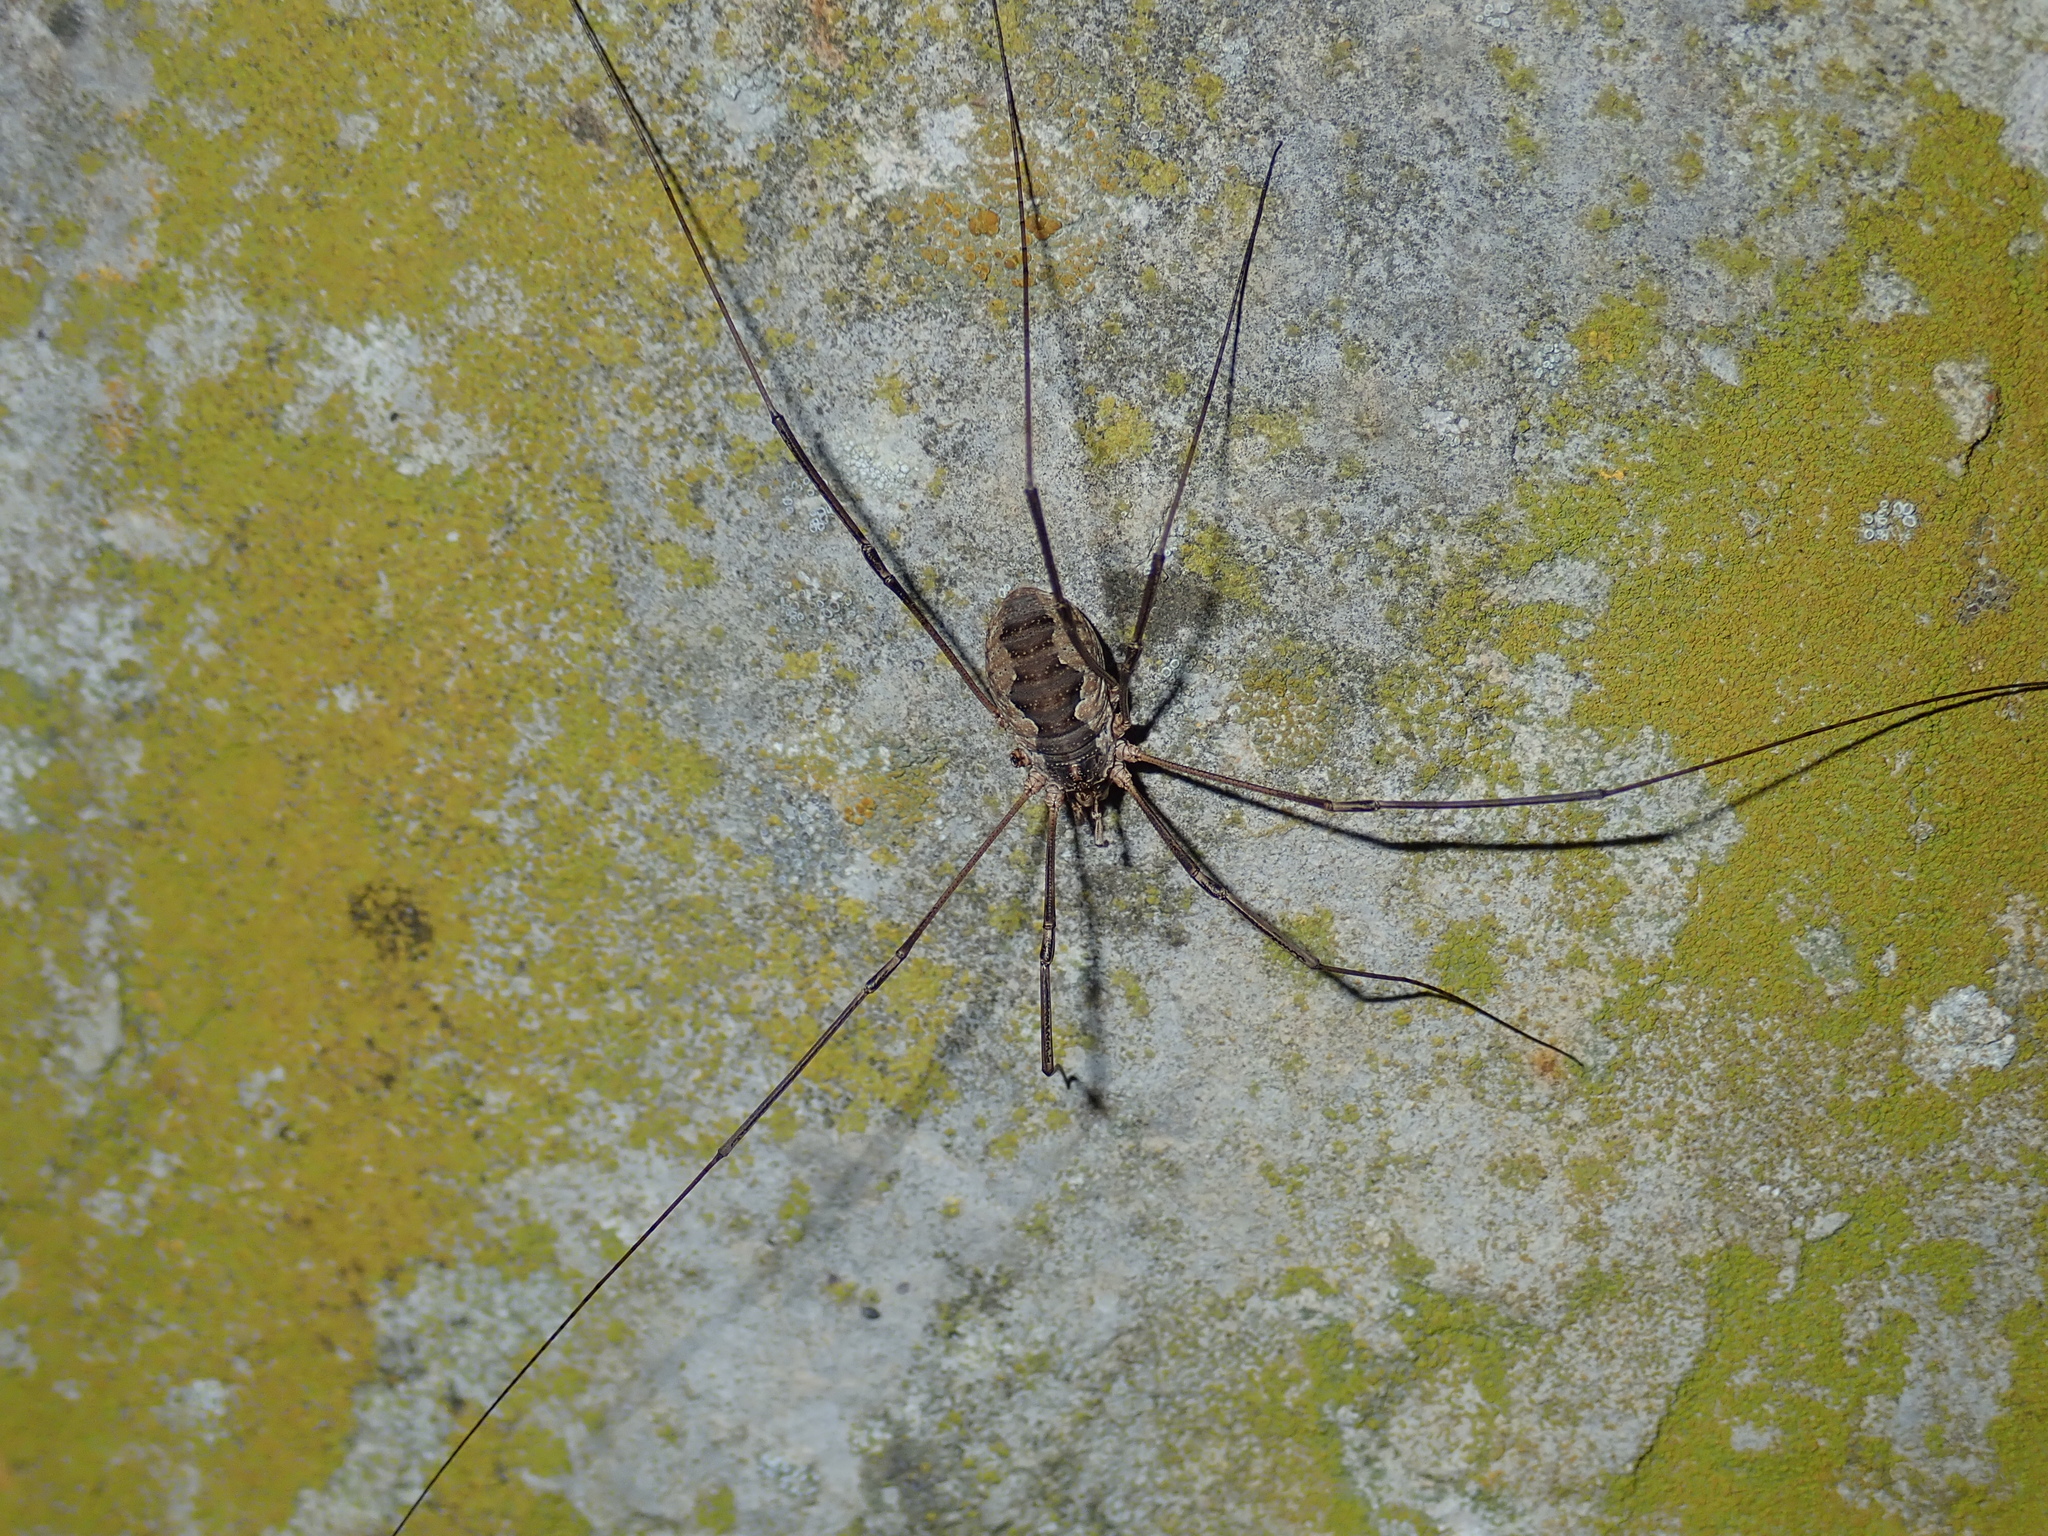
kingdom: Animalia
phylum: Arthropoda
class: Arachnida
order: Opiliones
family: Phalangiidae
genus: Phalangium
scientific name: Phalangium opilio
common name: Daddy longleg
